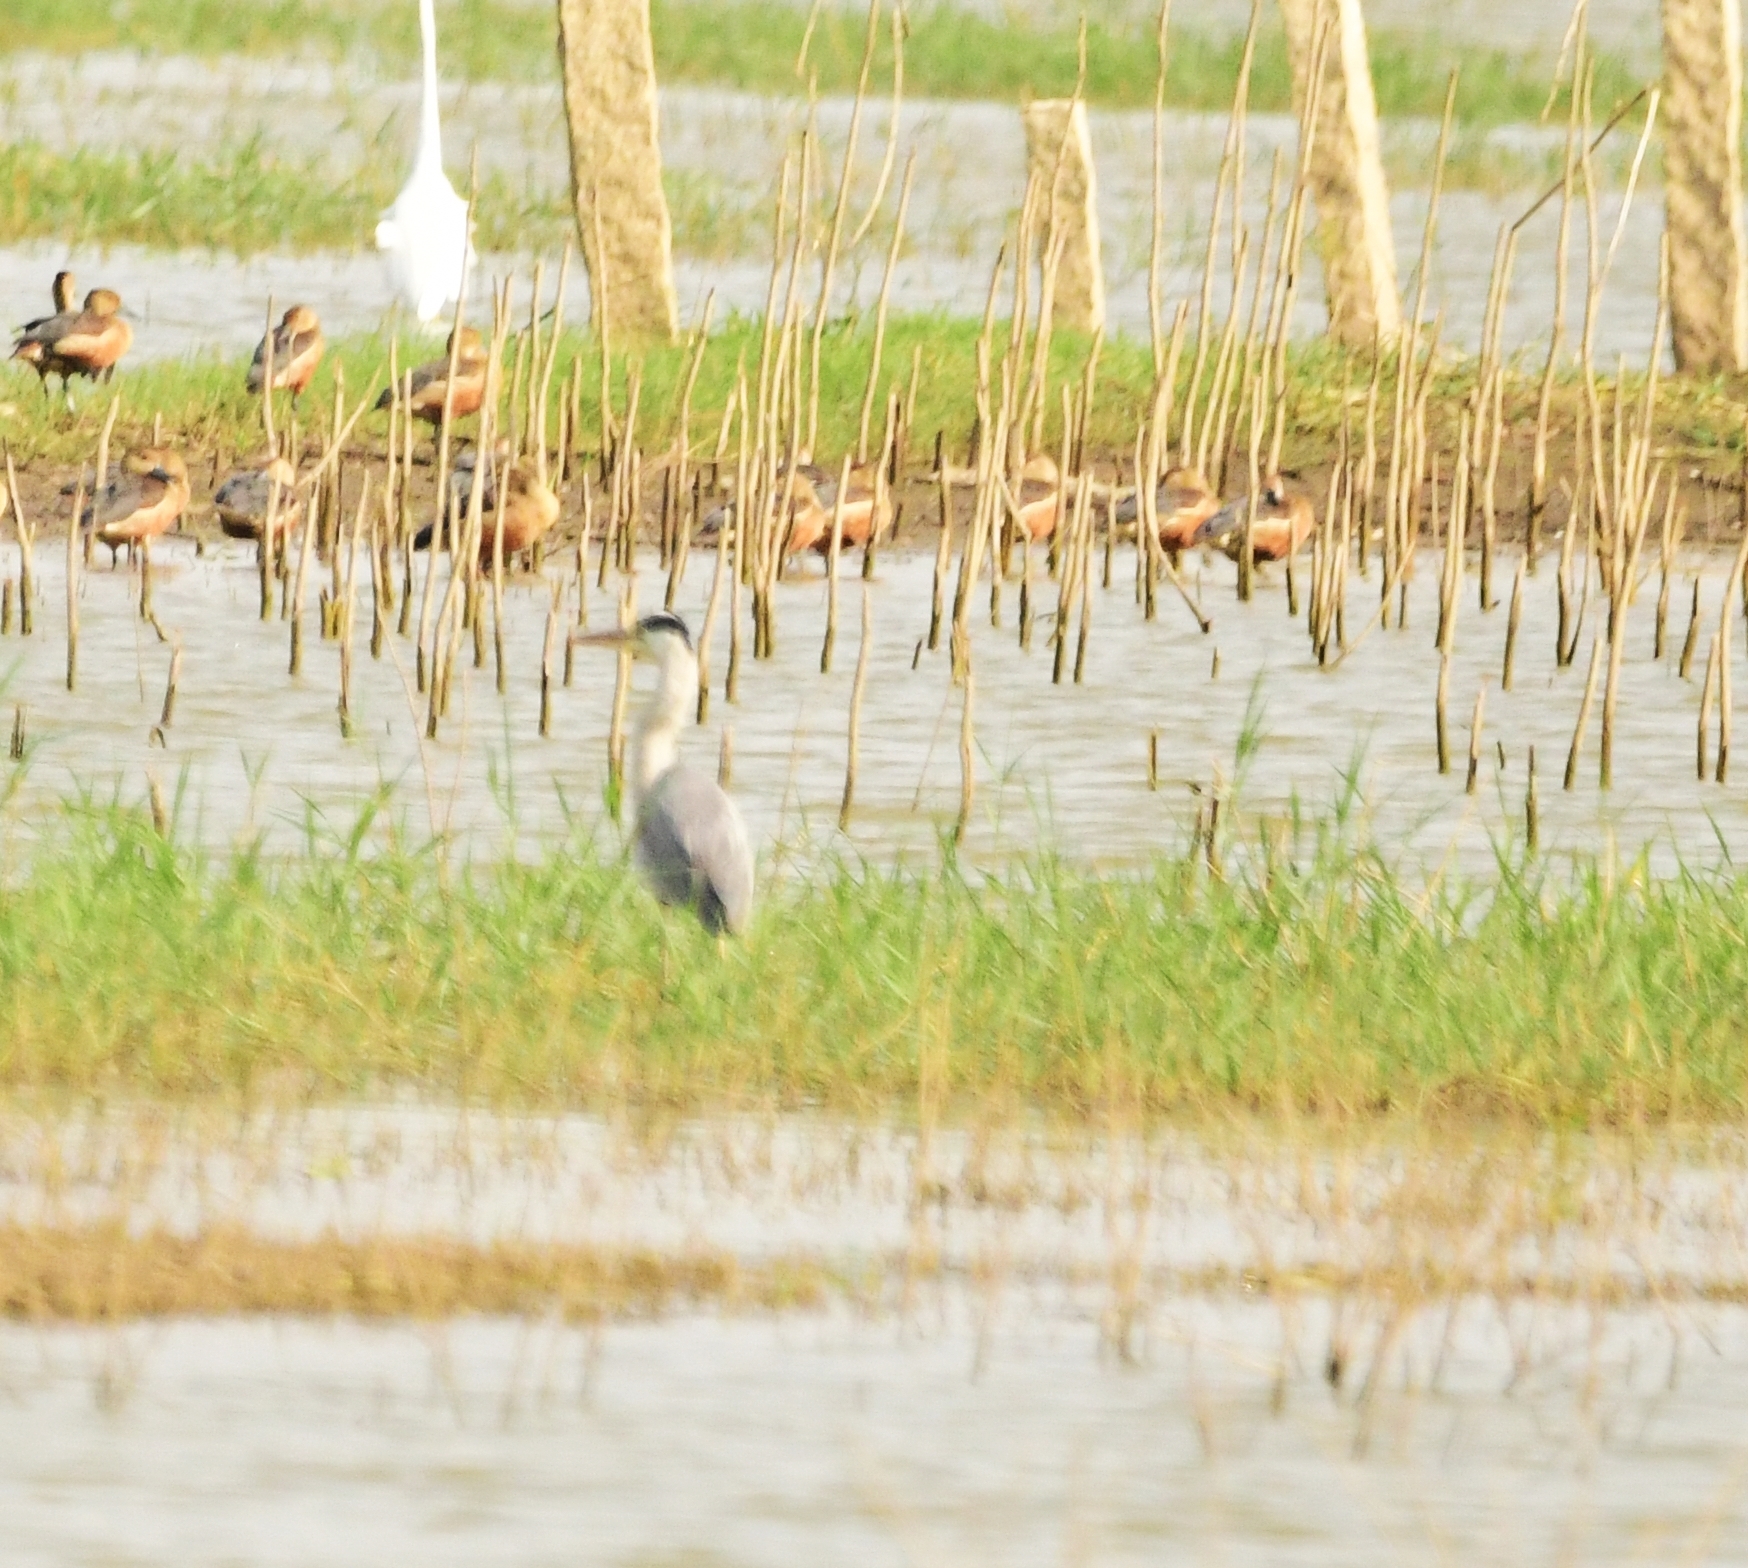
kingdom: Animalia
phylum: Chordata
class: Aves
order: Pelecaniformes
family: Ardeidae
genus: Ardea
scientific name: Ardea cinerea
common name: Grey heron
